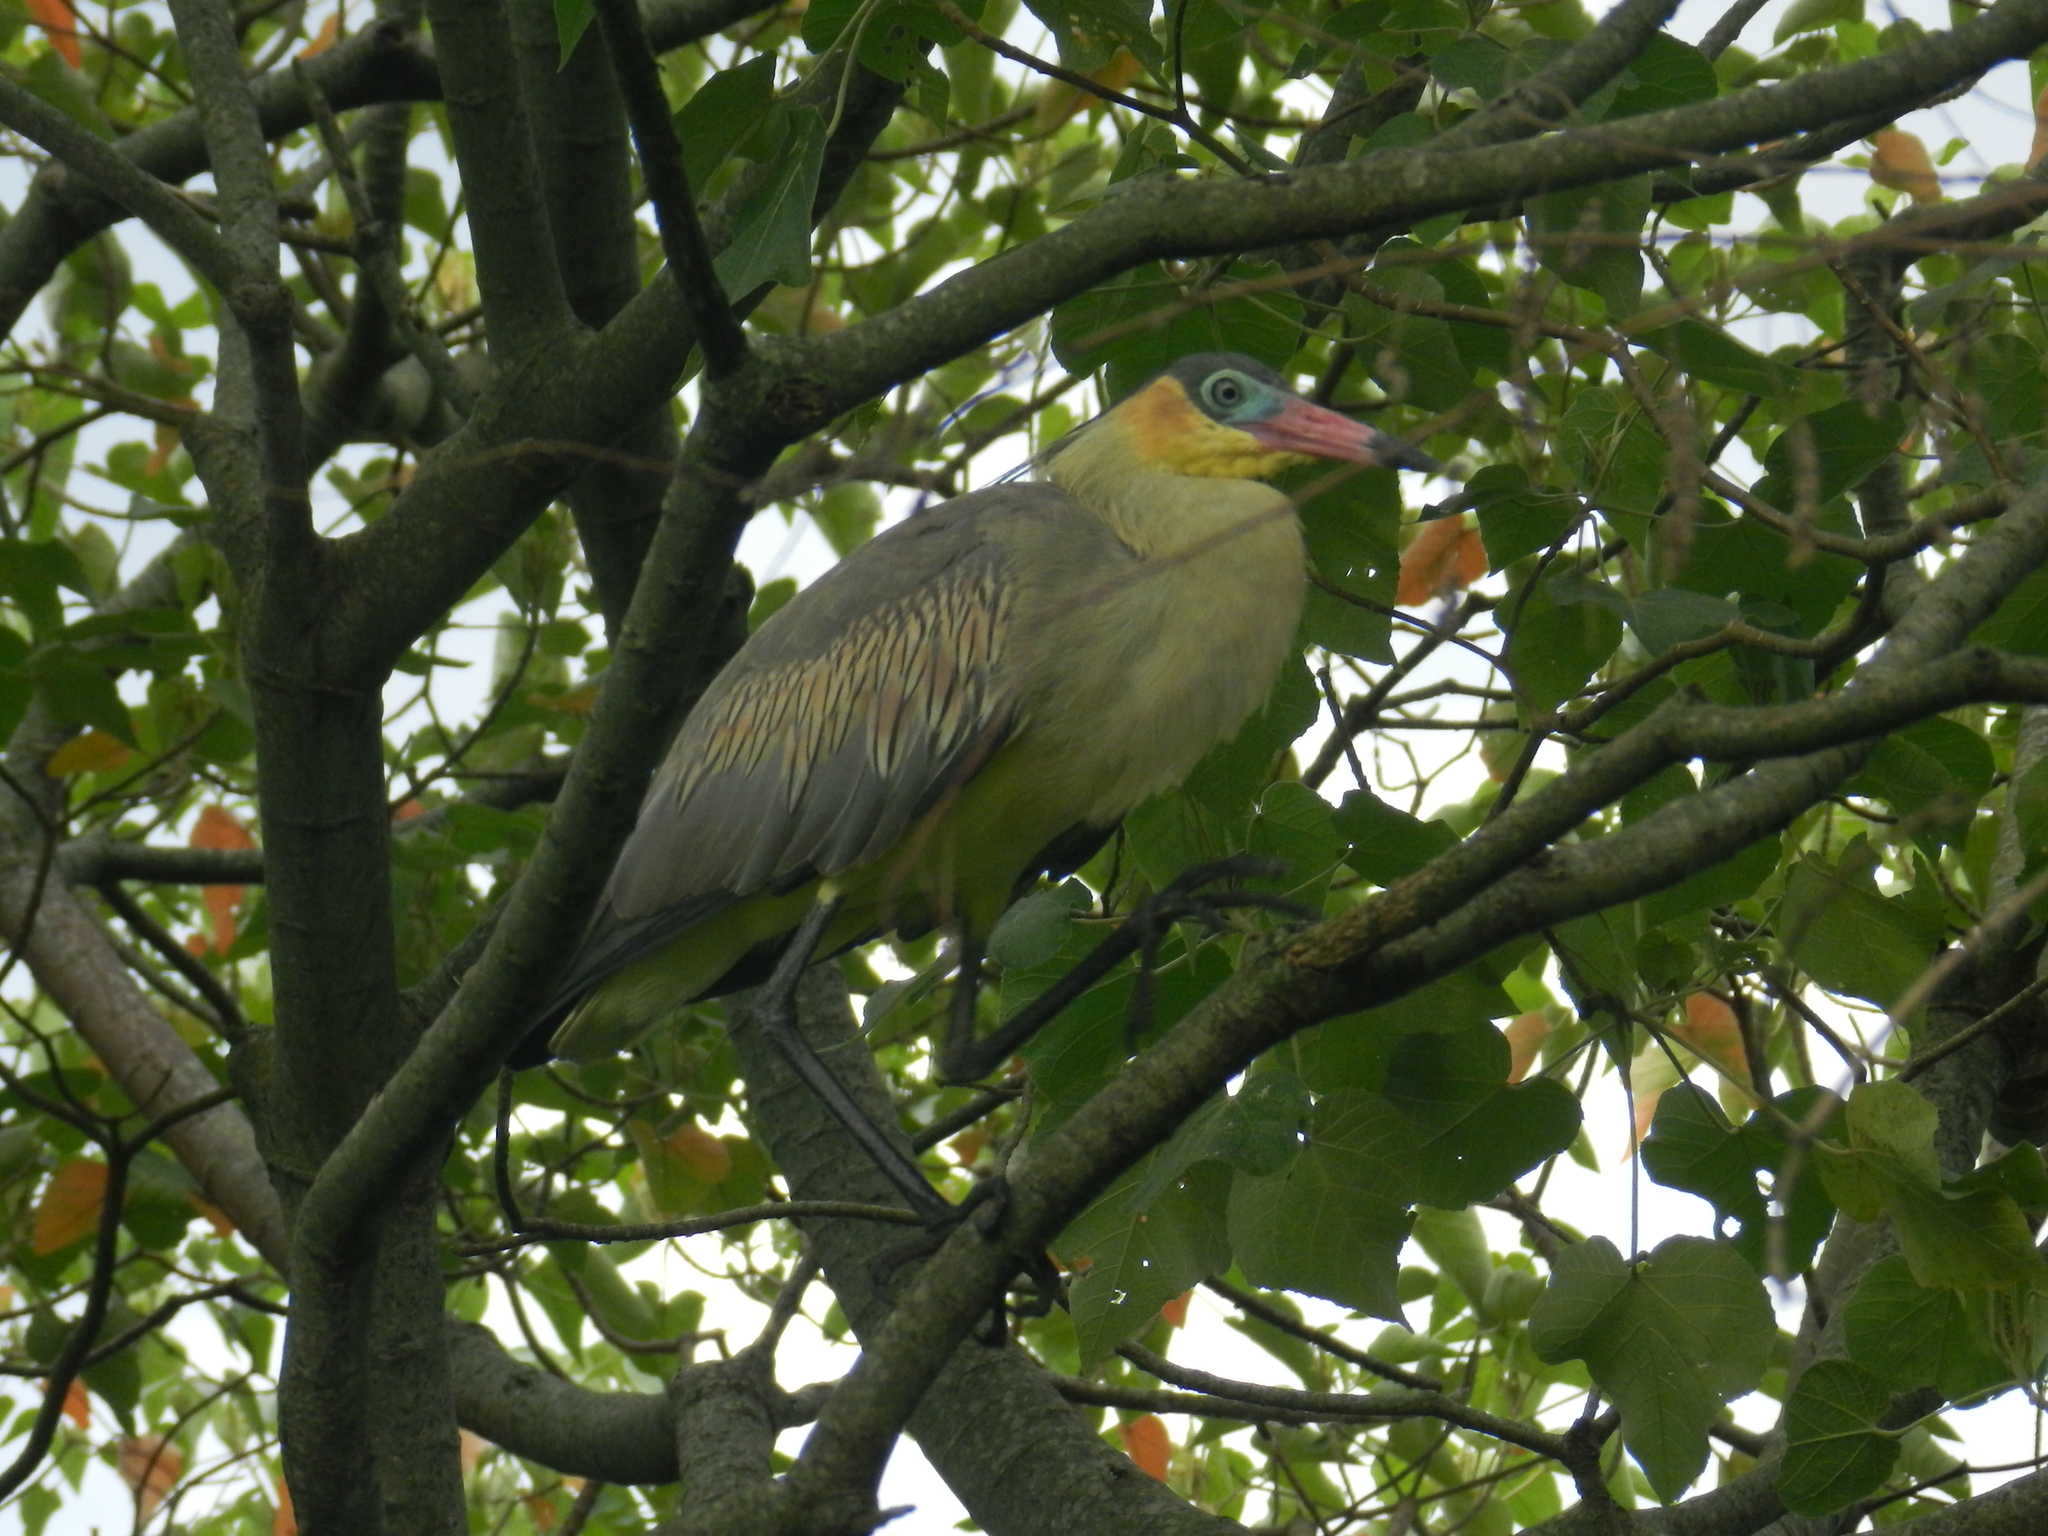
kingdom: Animalia
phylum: Chordata
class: Aves
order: Pelecaniformes
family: Ardeidae
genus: Syrigma
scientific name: Syrigma sibilatrix
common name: Whistling heron
